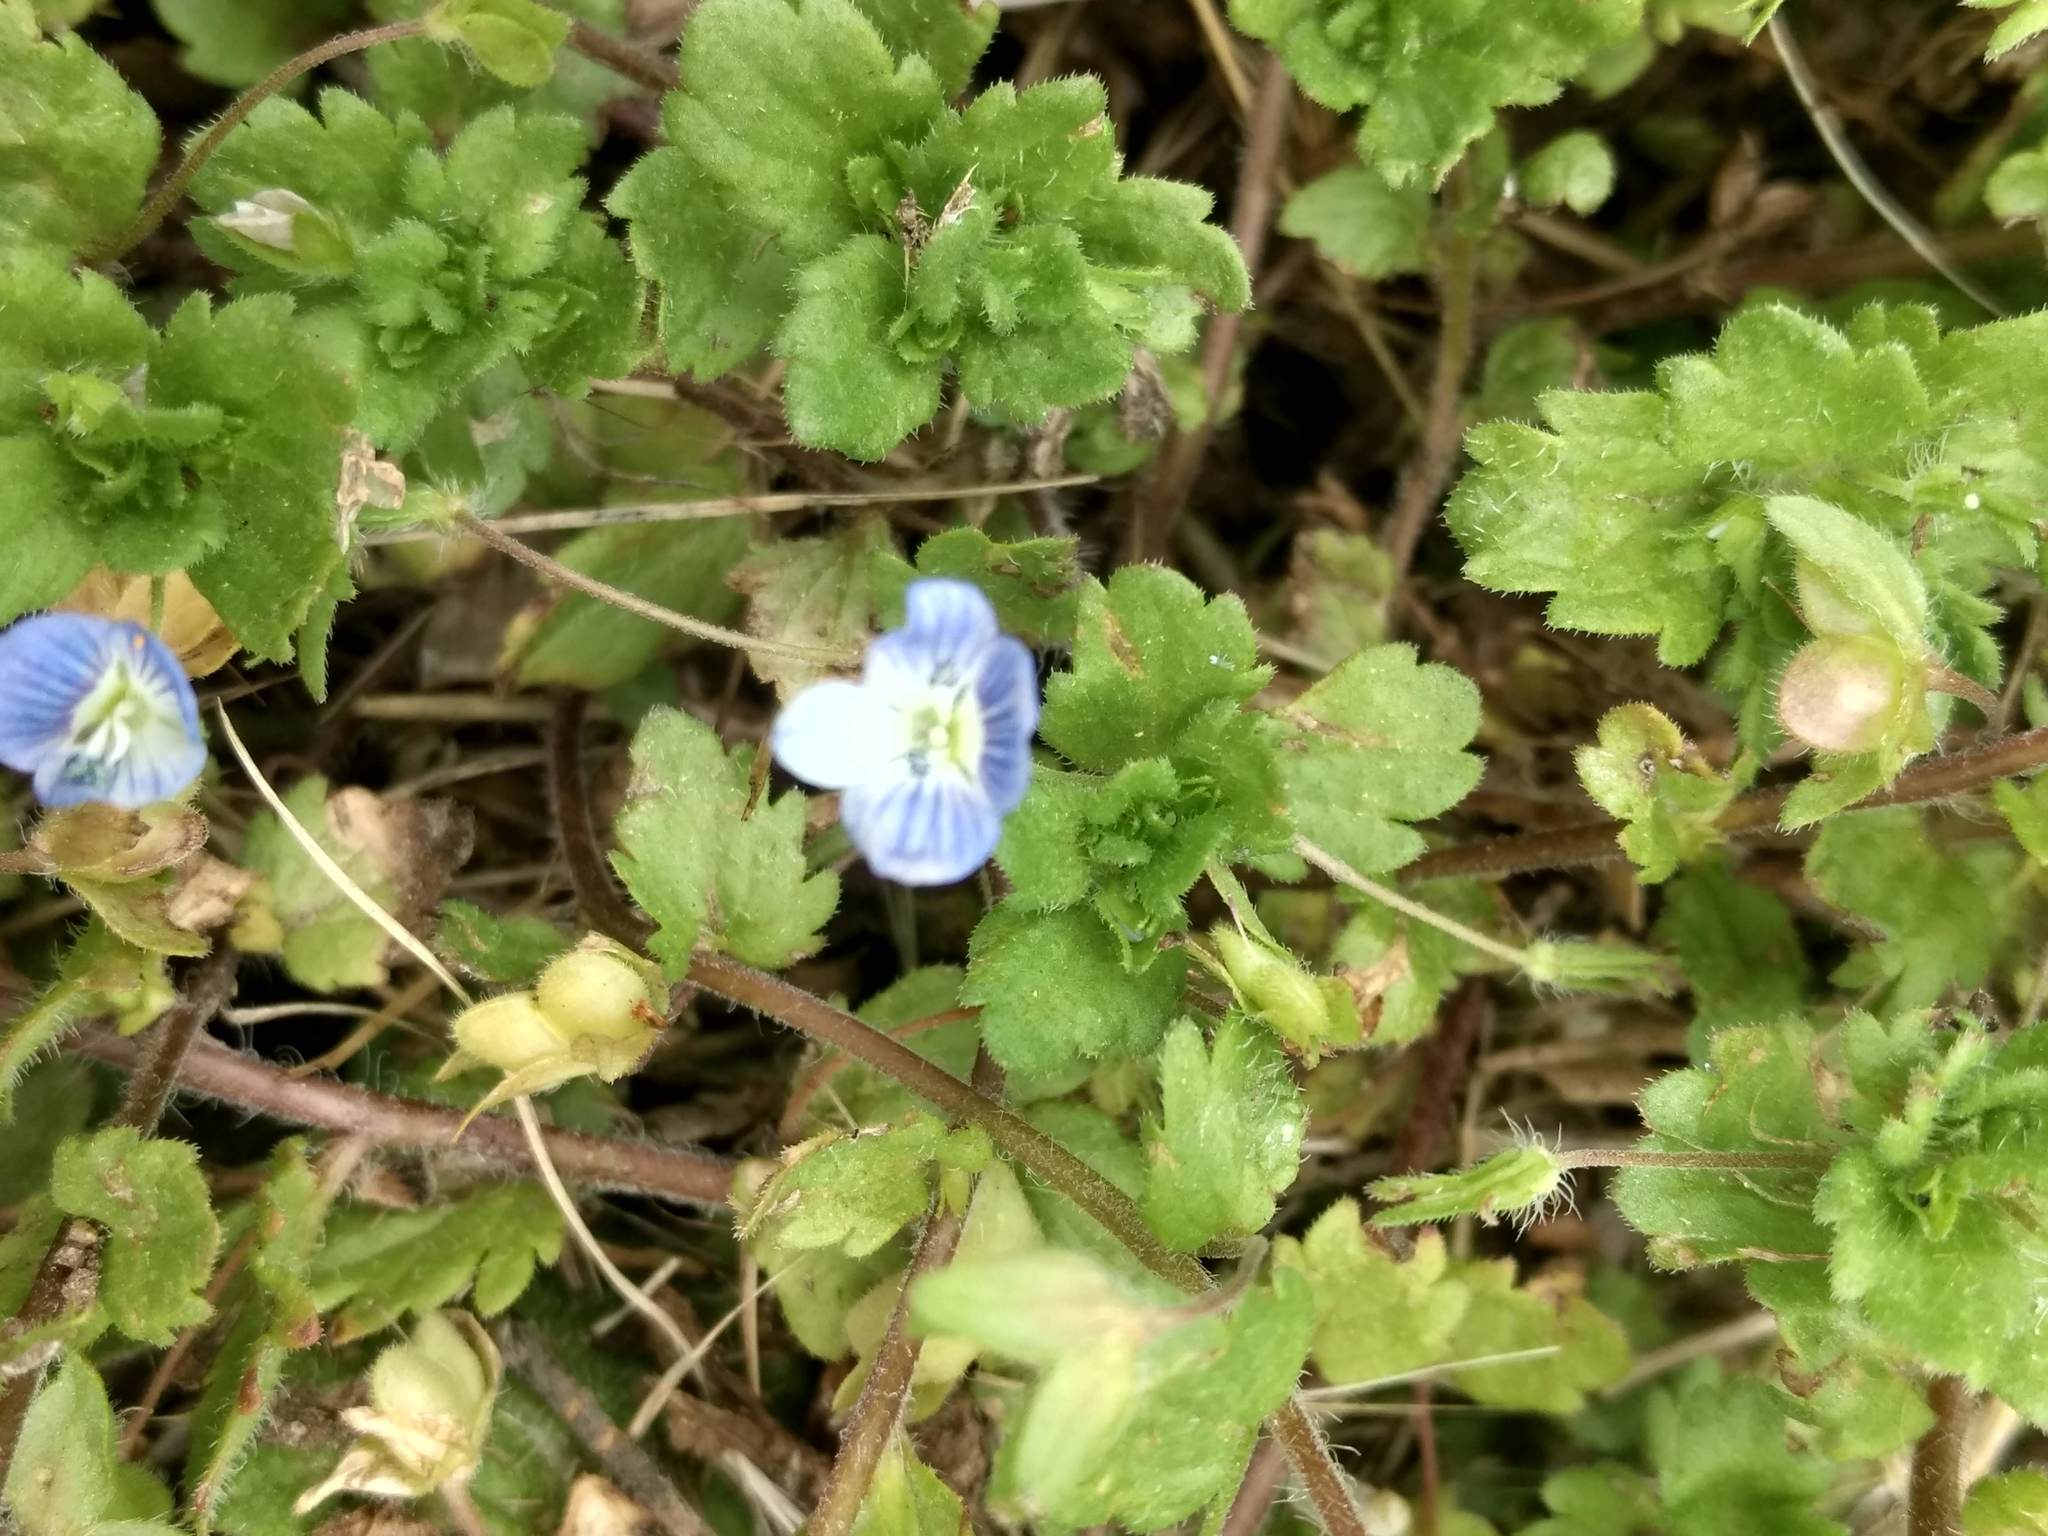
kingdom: Plantae
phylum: Tracheophyta
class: Magnoliopsida
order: Lamiales
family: Plantaginaceae
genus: Veronica
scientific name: Veronica persica
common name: Common field-speedwell
